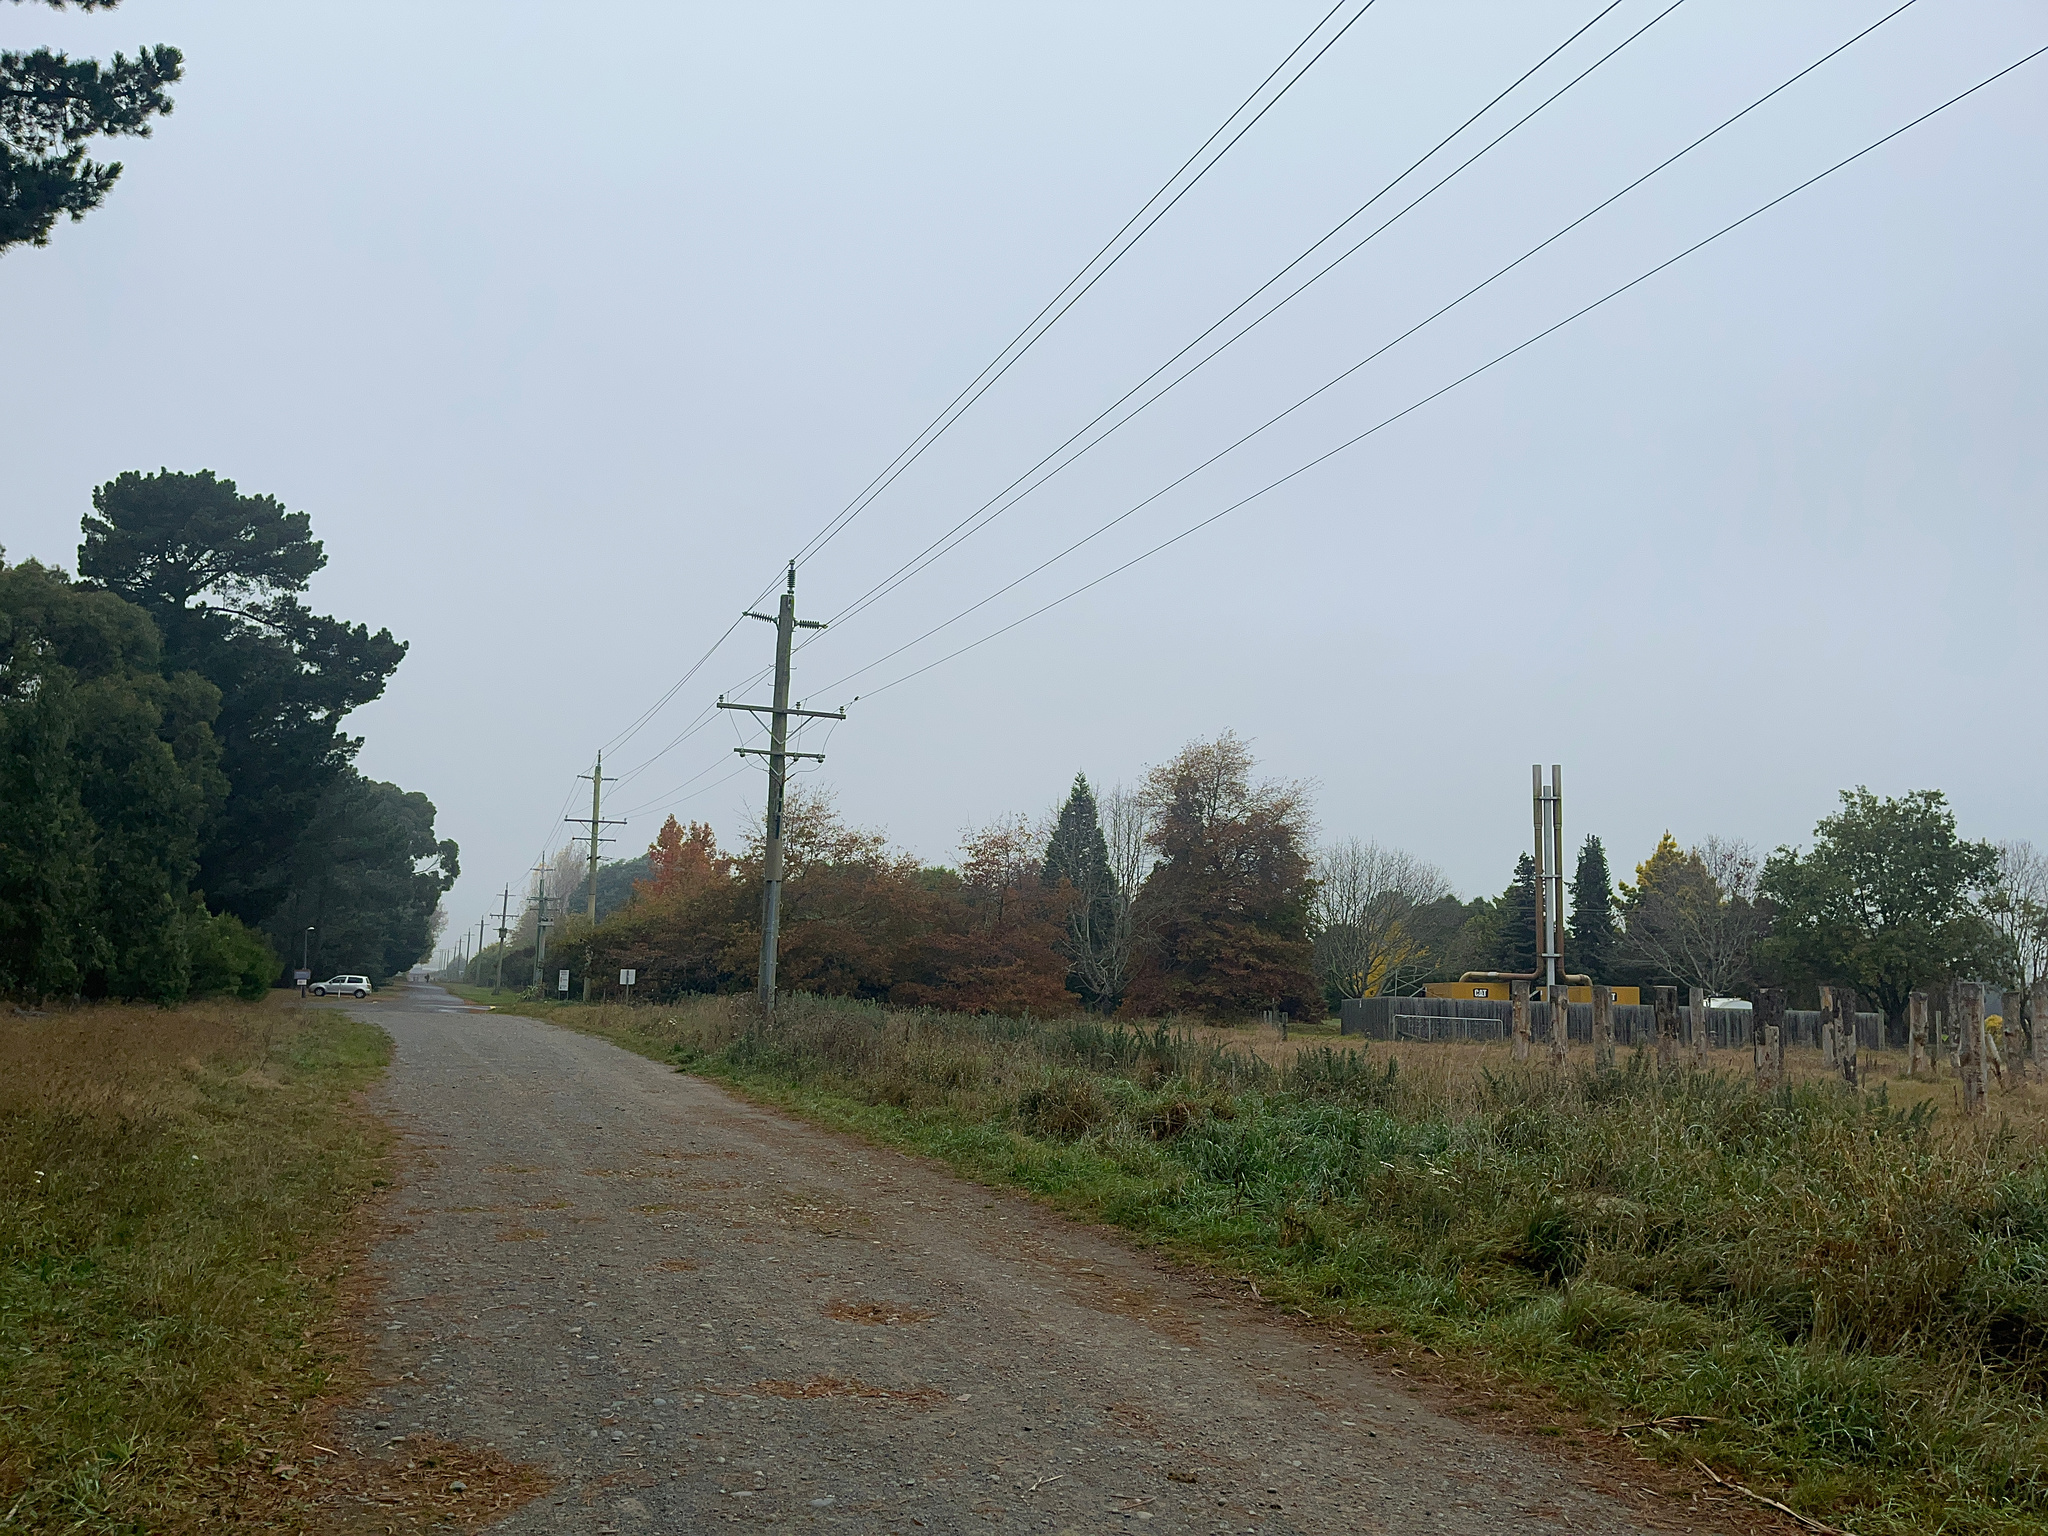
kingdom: Animalia
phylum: Chordata
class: Aves
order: Coraciiformes
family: Alcedinidae
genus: Todiramphus
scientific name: Todiramphus sanctus
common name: Sacred kingfisher
